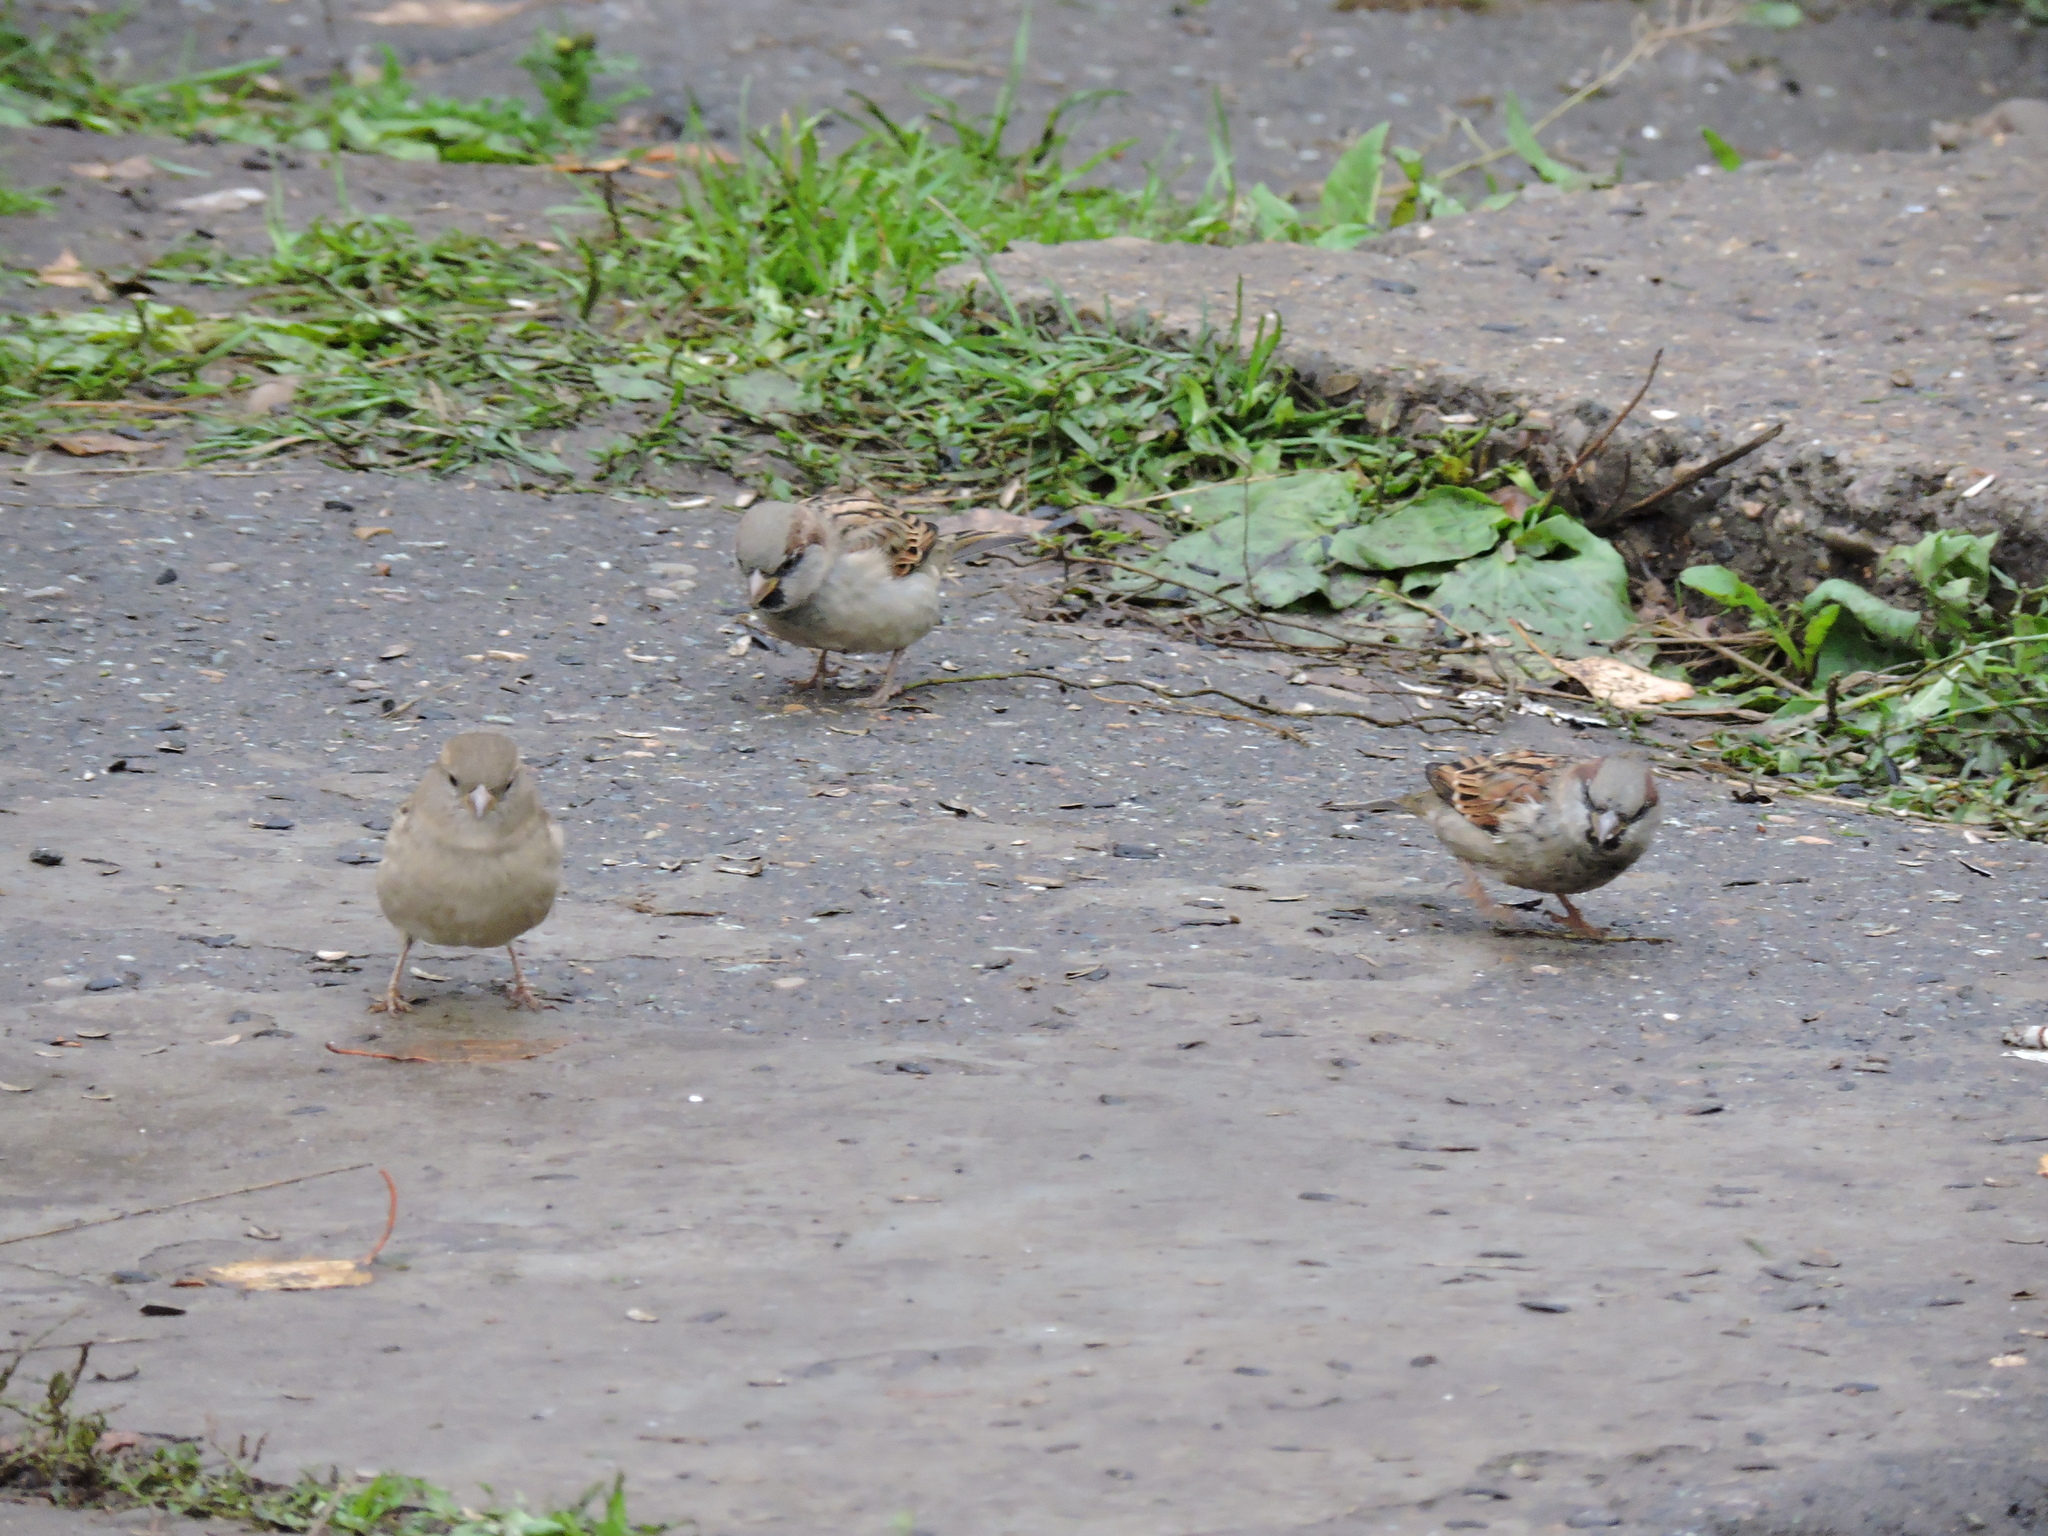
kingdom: Animalia
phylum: Chordata
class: Aves
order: Passeriformes
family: Passeridae
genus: Passer
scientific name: Passer domesticus
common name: House sparrow
